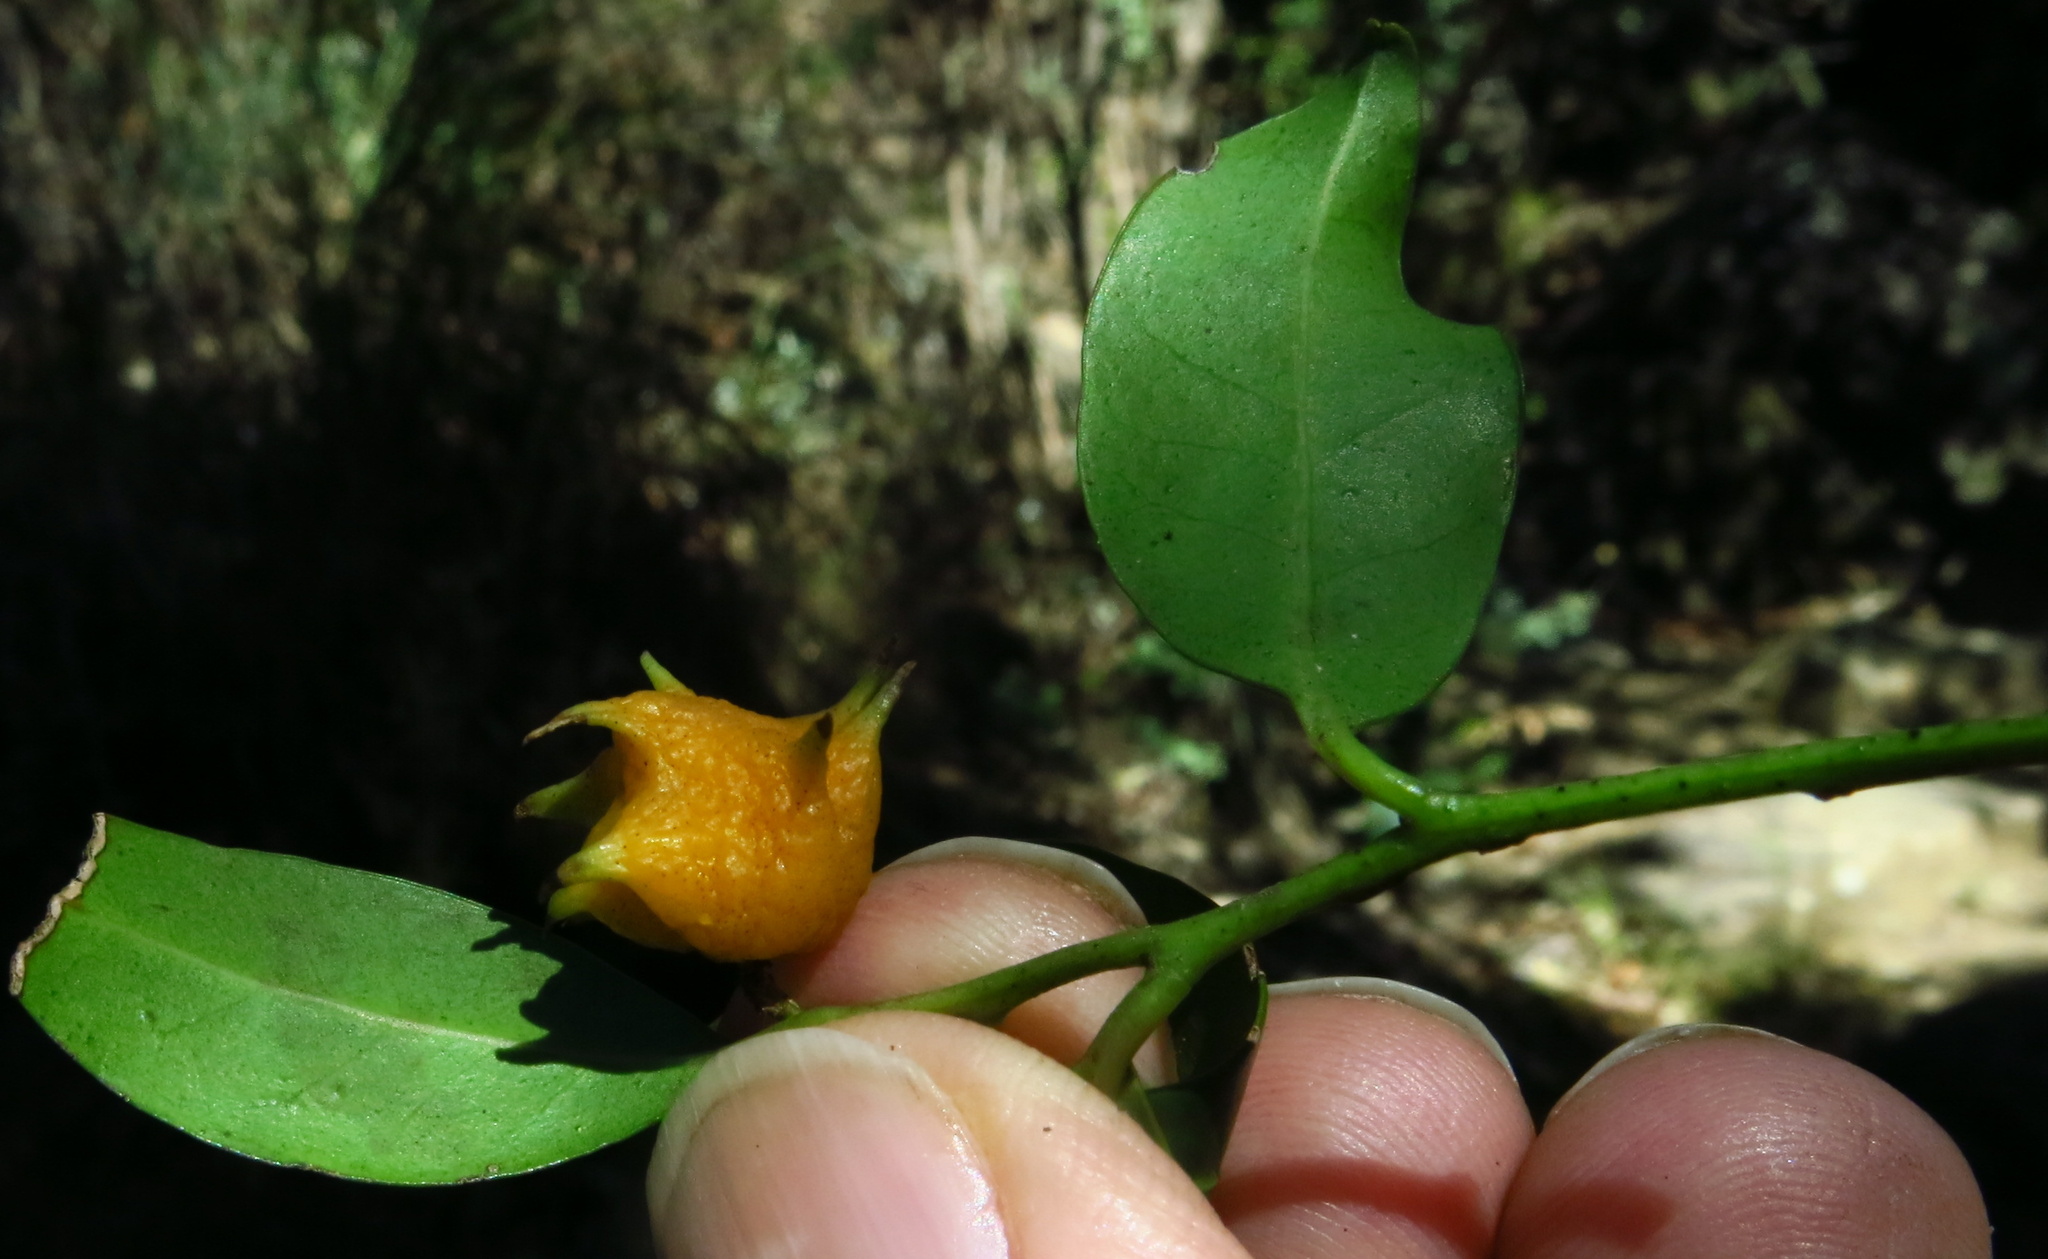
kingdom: Plantae
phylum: Tracheophyta
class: Magnoliopsida
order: Celastrales
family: Celastraceae
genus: Pterocelastrus
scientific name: Pterocelastrus rostratus
